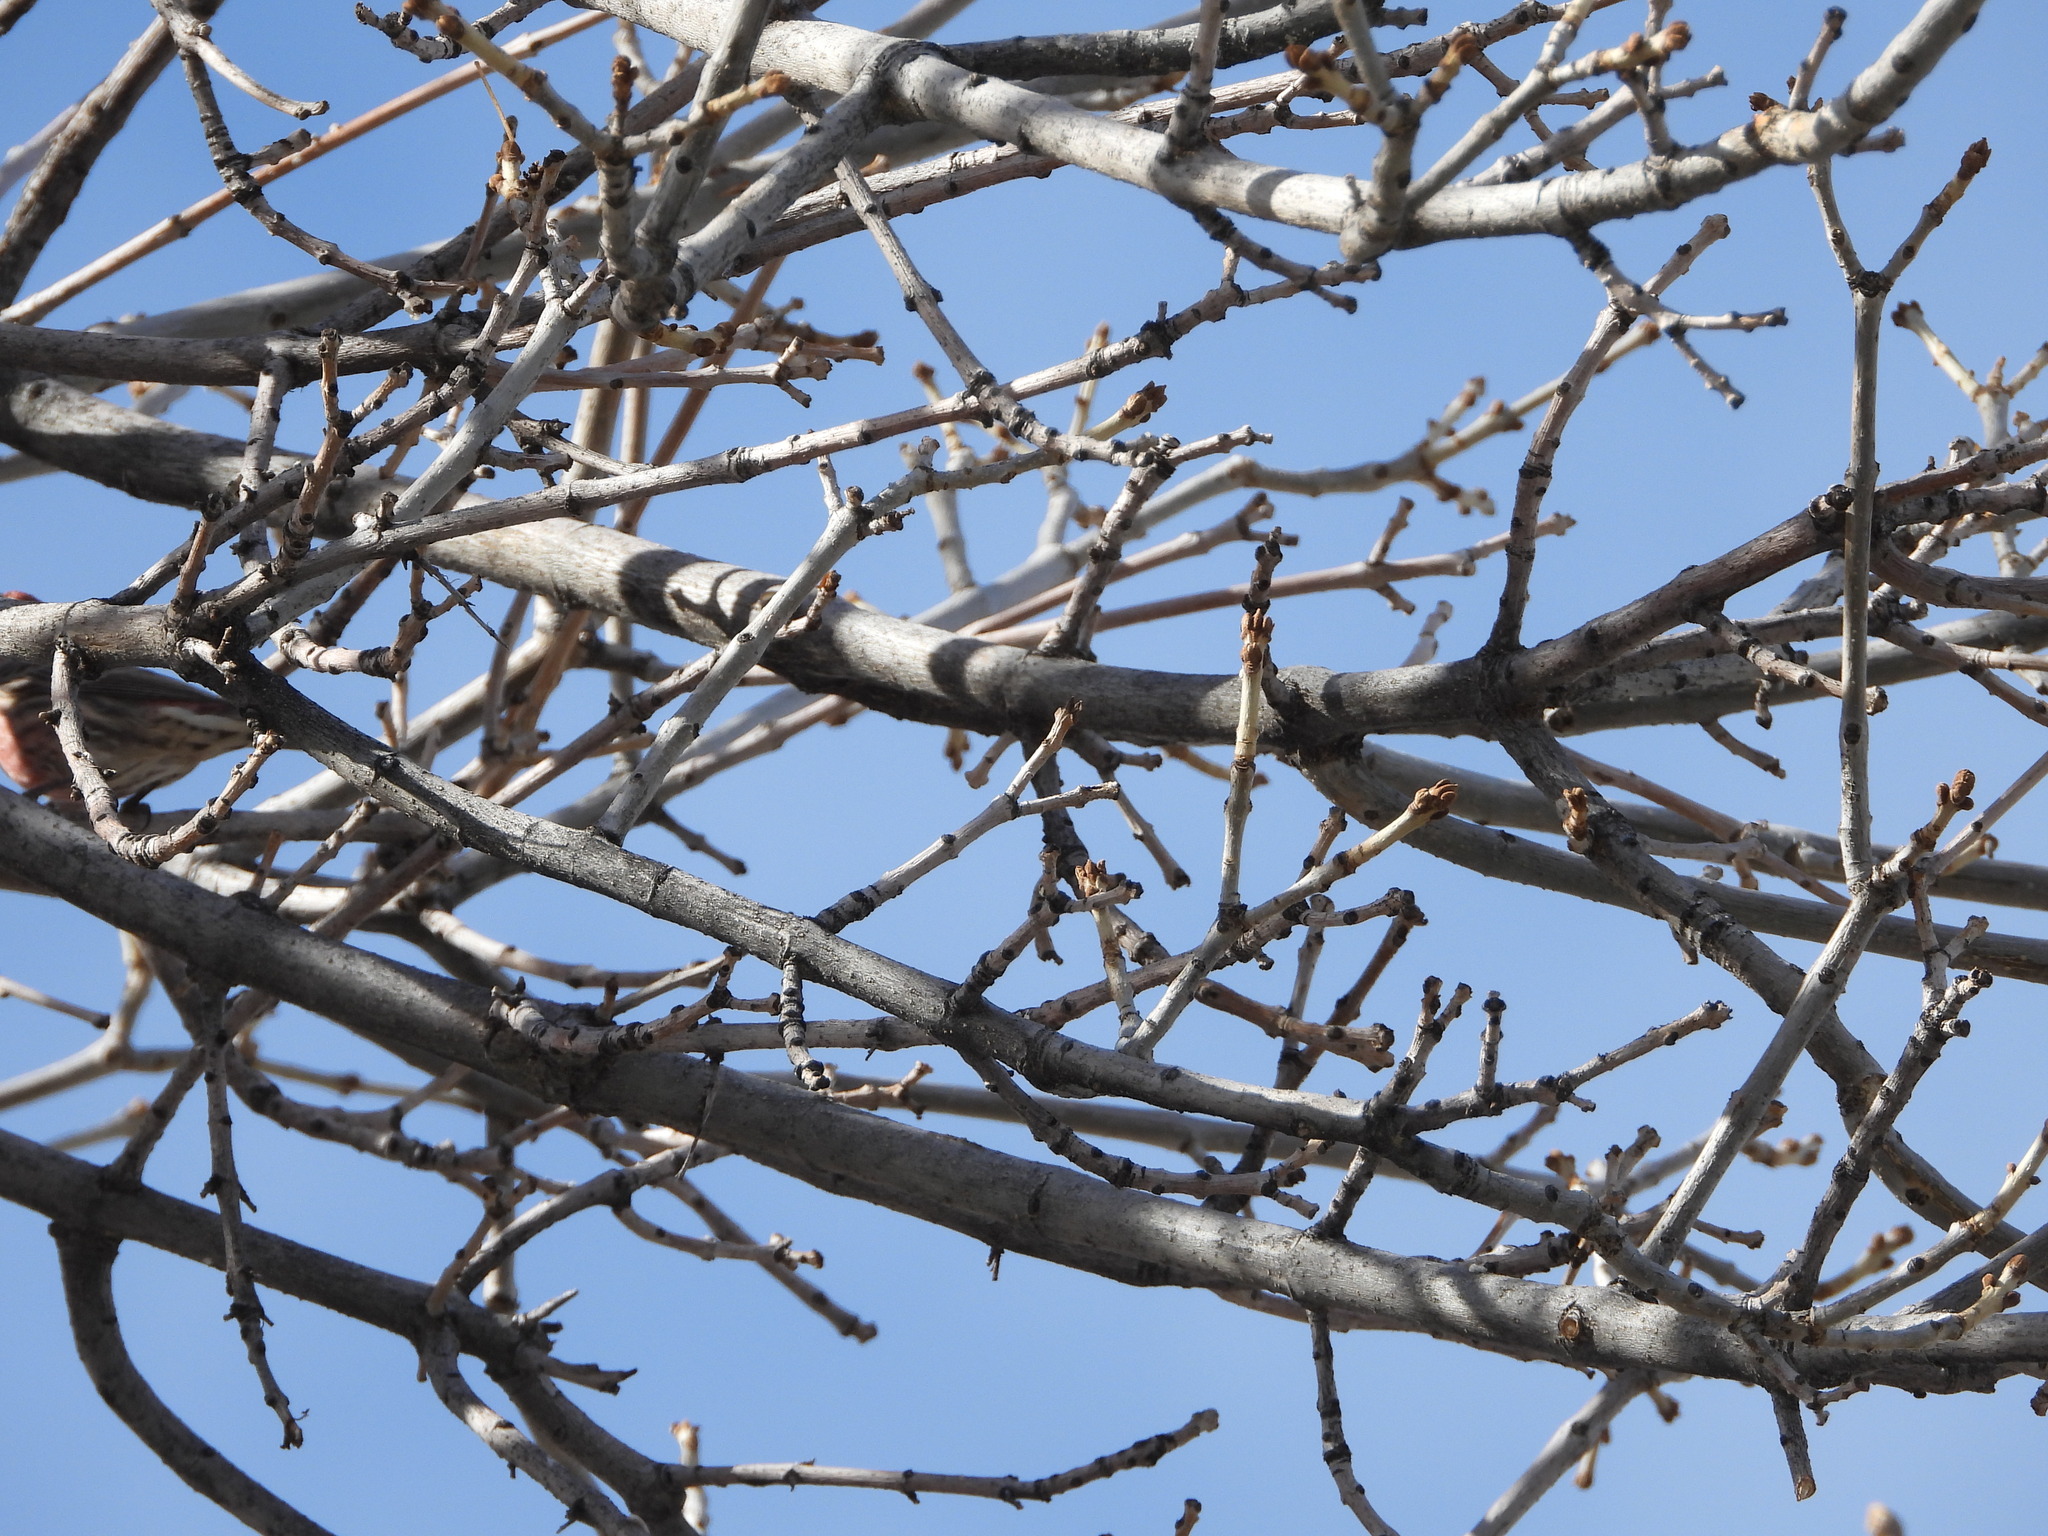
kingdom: Animalia
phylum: Chordata
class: Aves
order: Passeriformes
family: Fringillidae
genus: Haemorhous
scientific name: Haemorhous mexicanus
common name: House finch
